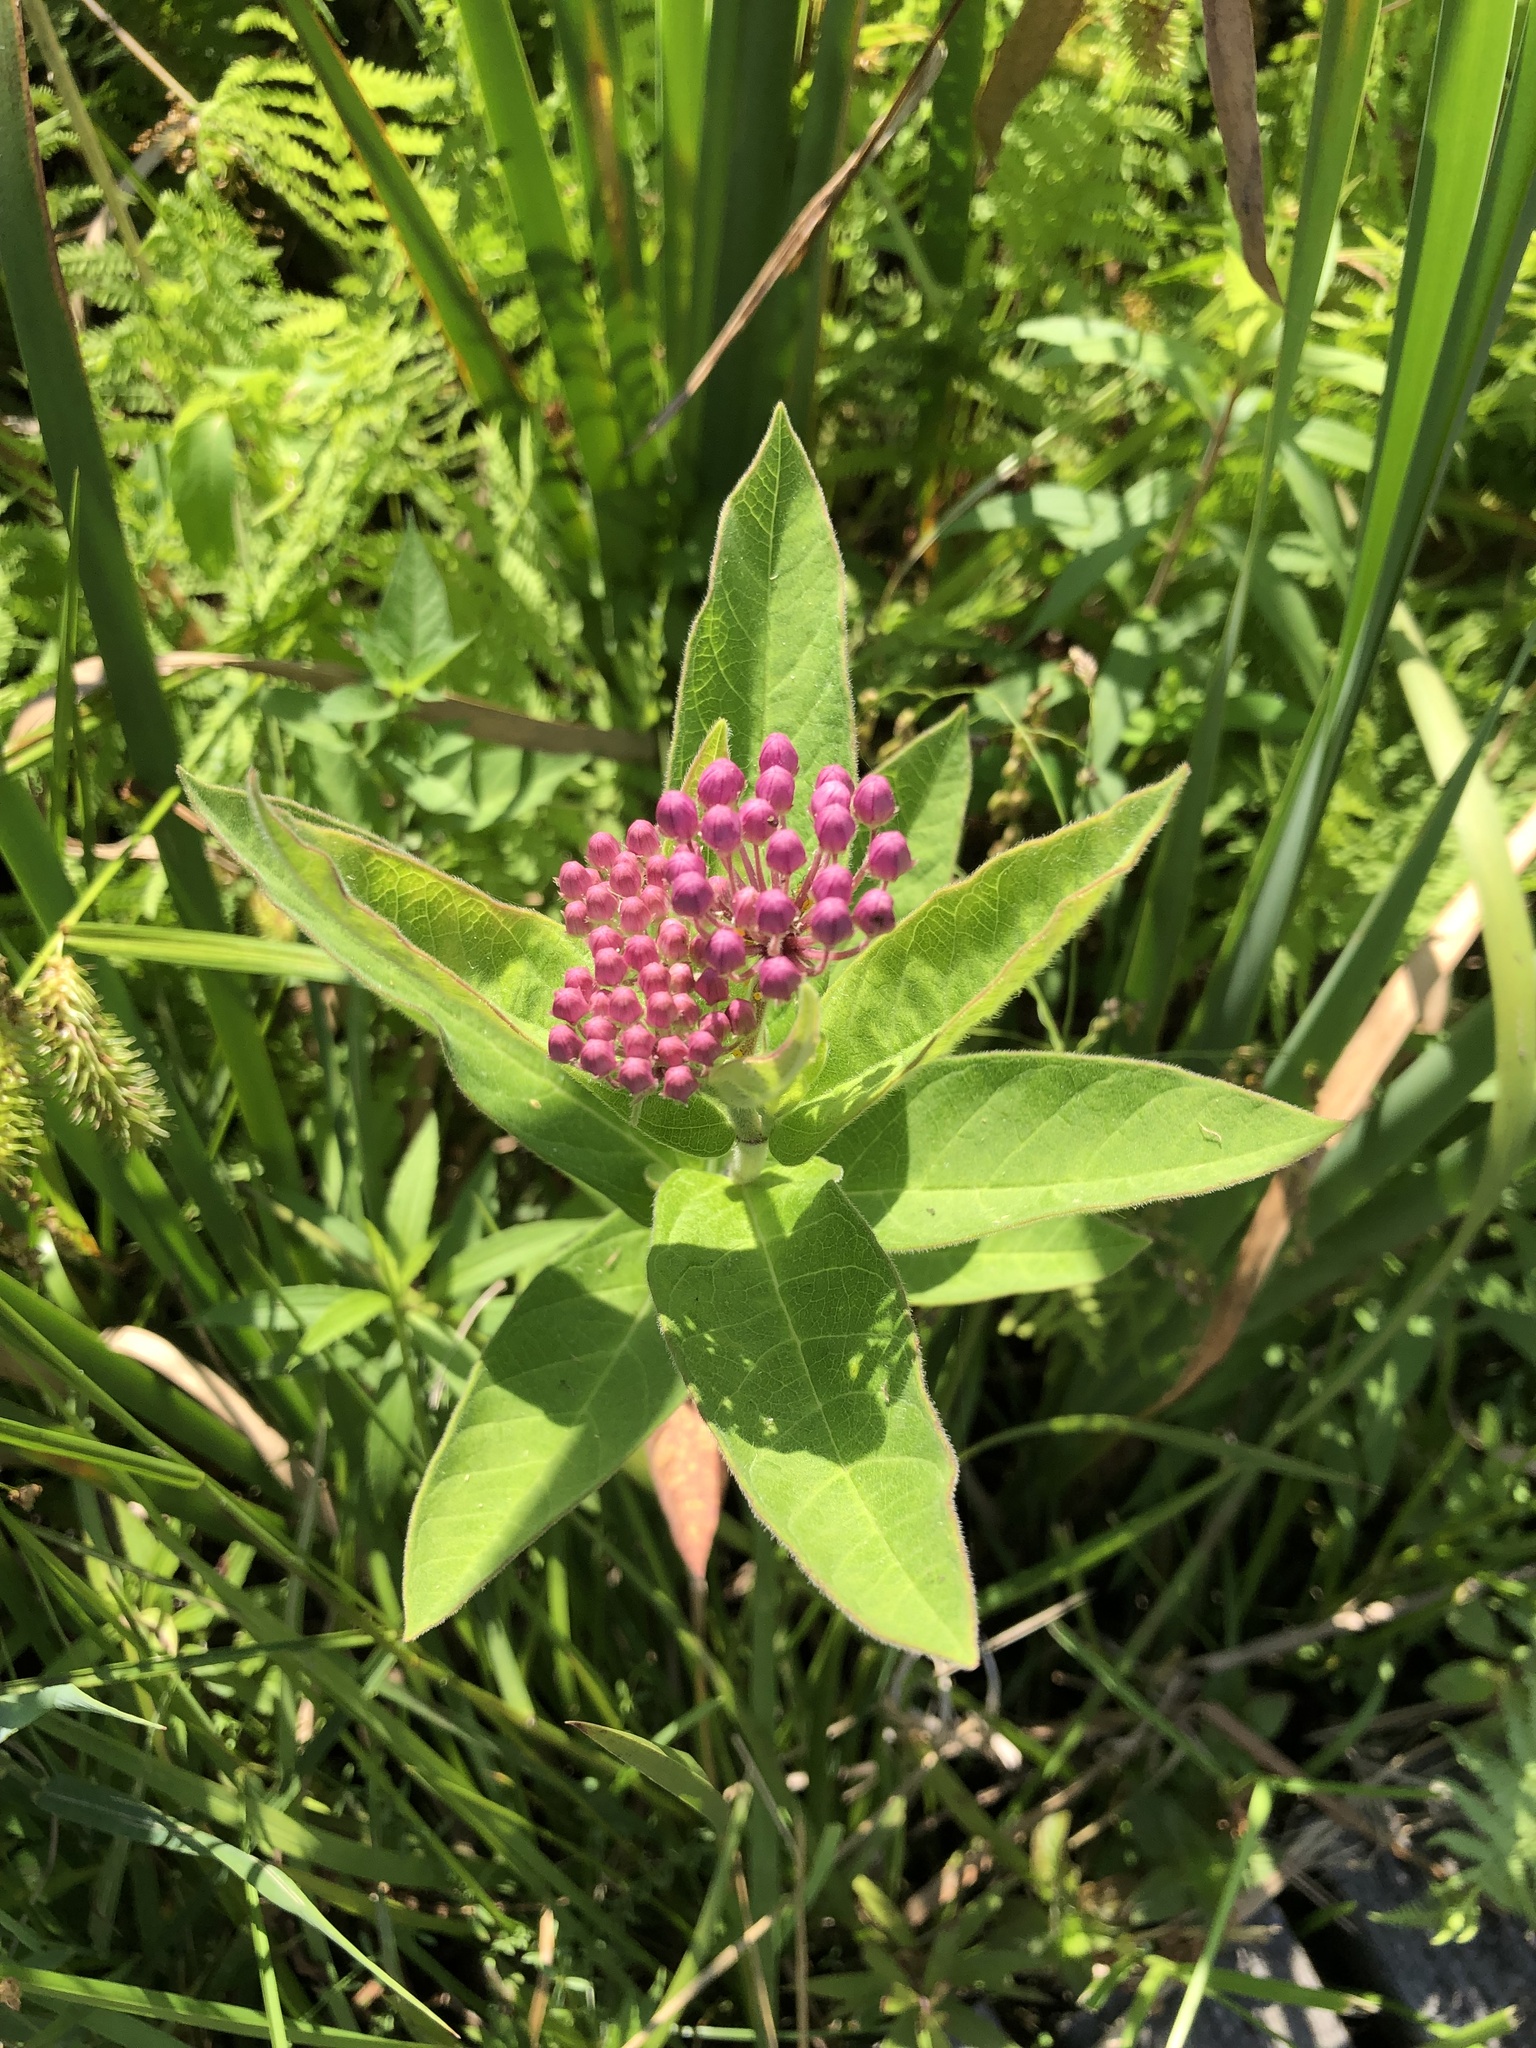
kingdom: Plantae
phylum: Tracheophyta
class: Magnoliopsida
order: Gentianales
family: Apocynaceae
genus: Asclepias
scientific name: Asclepias incarnata
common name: Swamp milkweed
